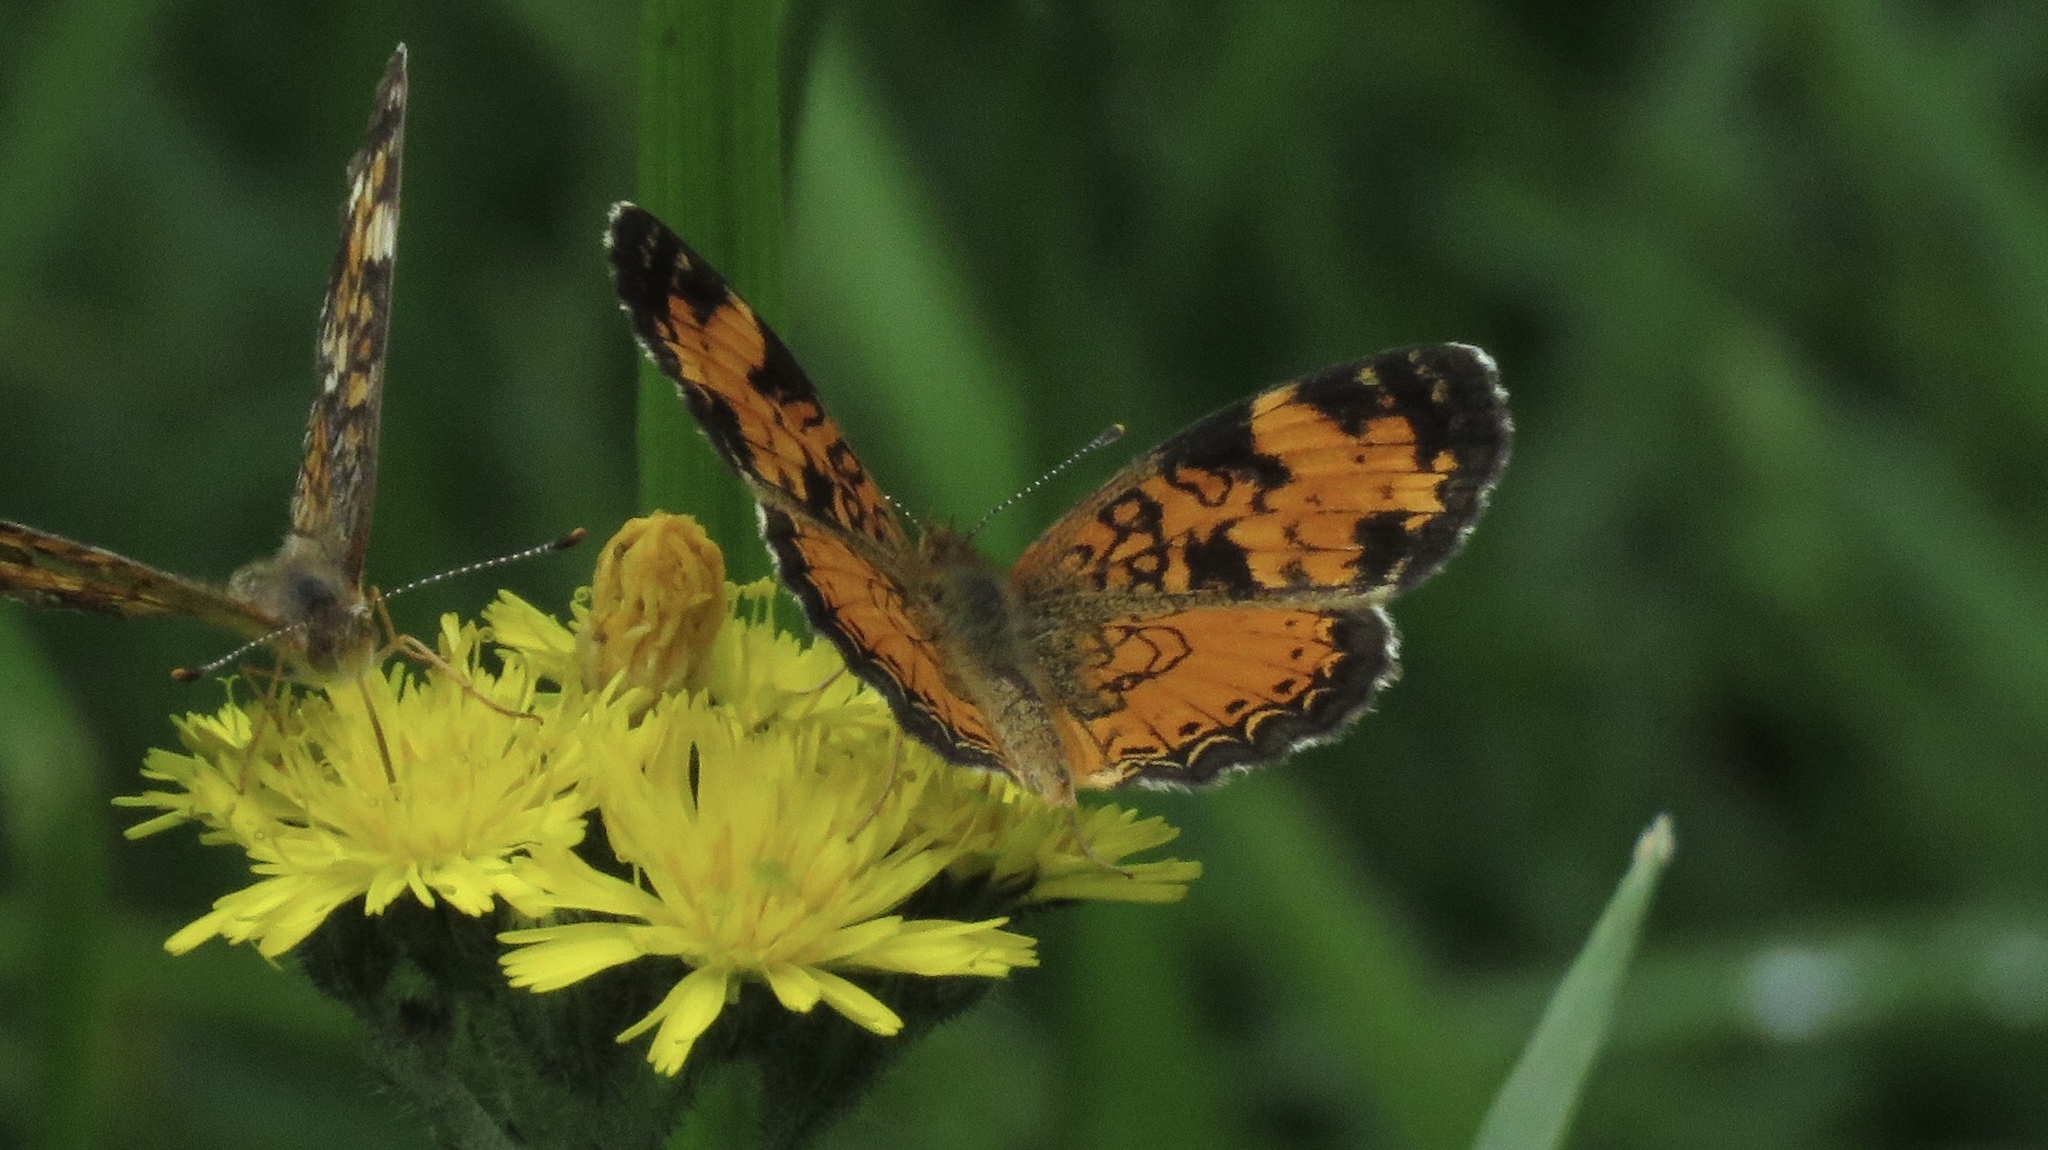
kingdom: Animalia
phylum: Arthropoda
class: Insecta
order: Lepidoptera
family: Nymphalidae
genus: Phyciodes
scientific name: Phyciodes tharos
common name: Pearl crescent
